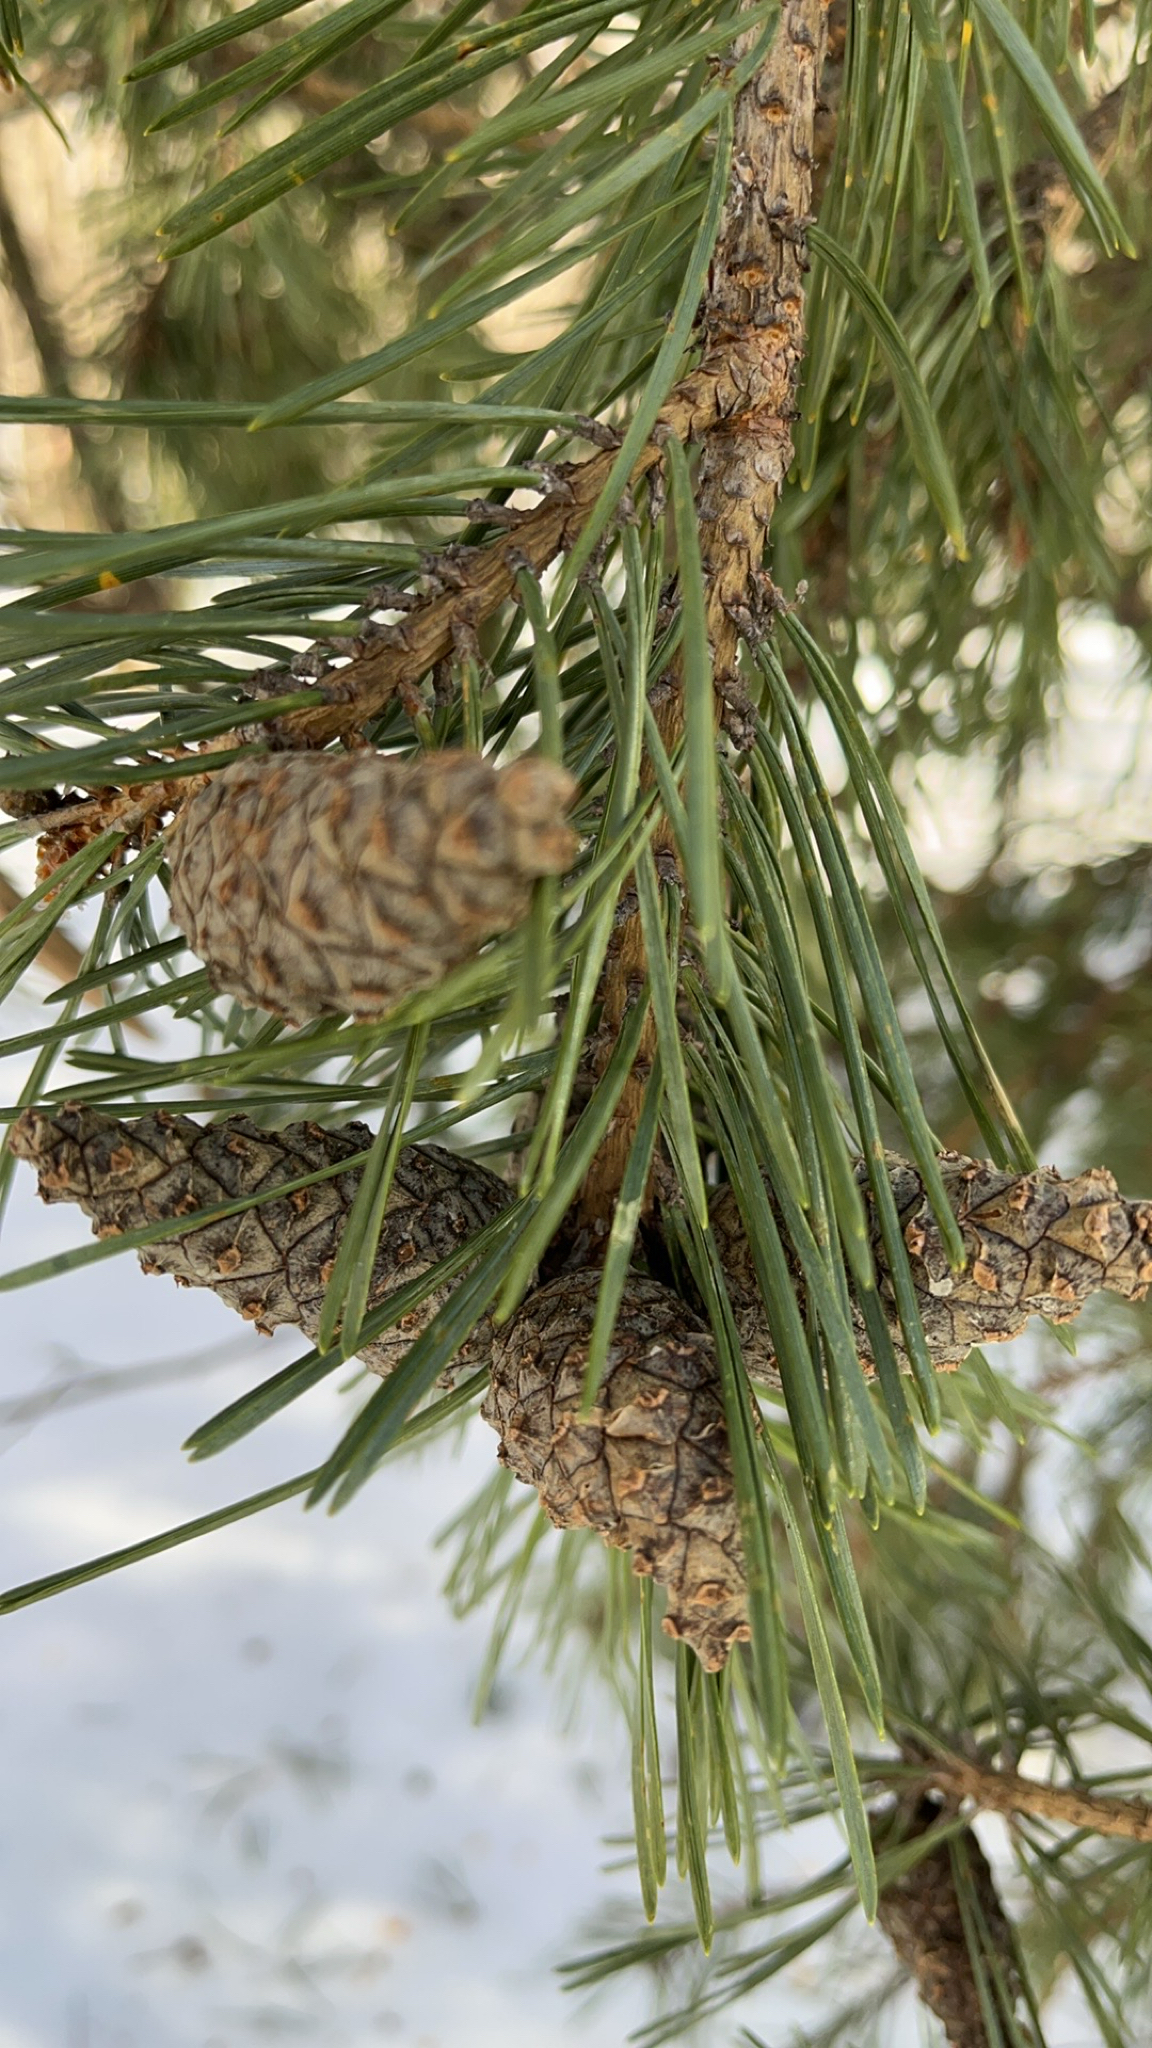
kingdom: Plantae
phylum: Tracheophyta
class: Pinopsida
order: Pinales
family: Pinaceae
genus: Pinus
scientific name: Pinus sylvestris
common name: Scots pine
